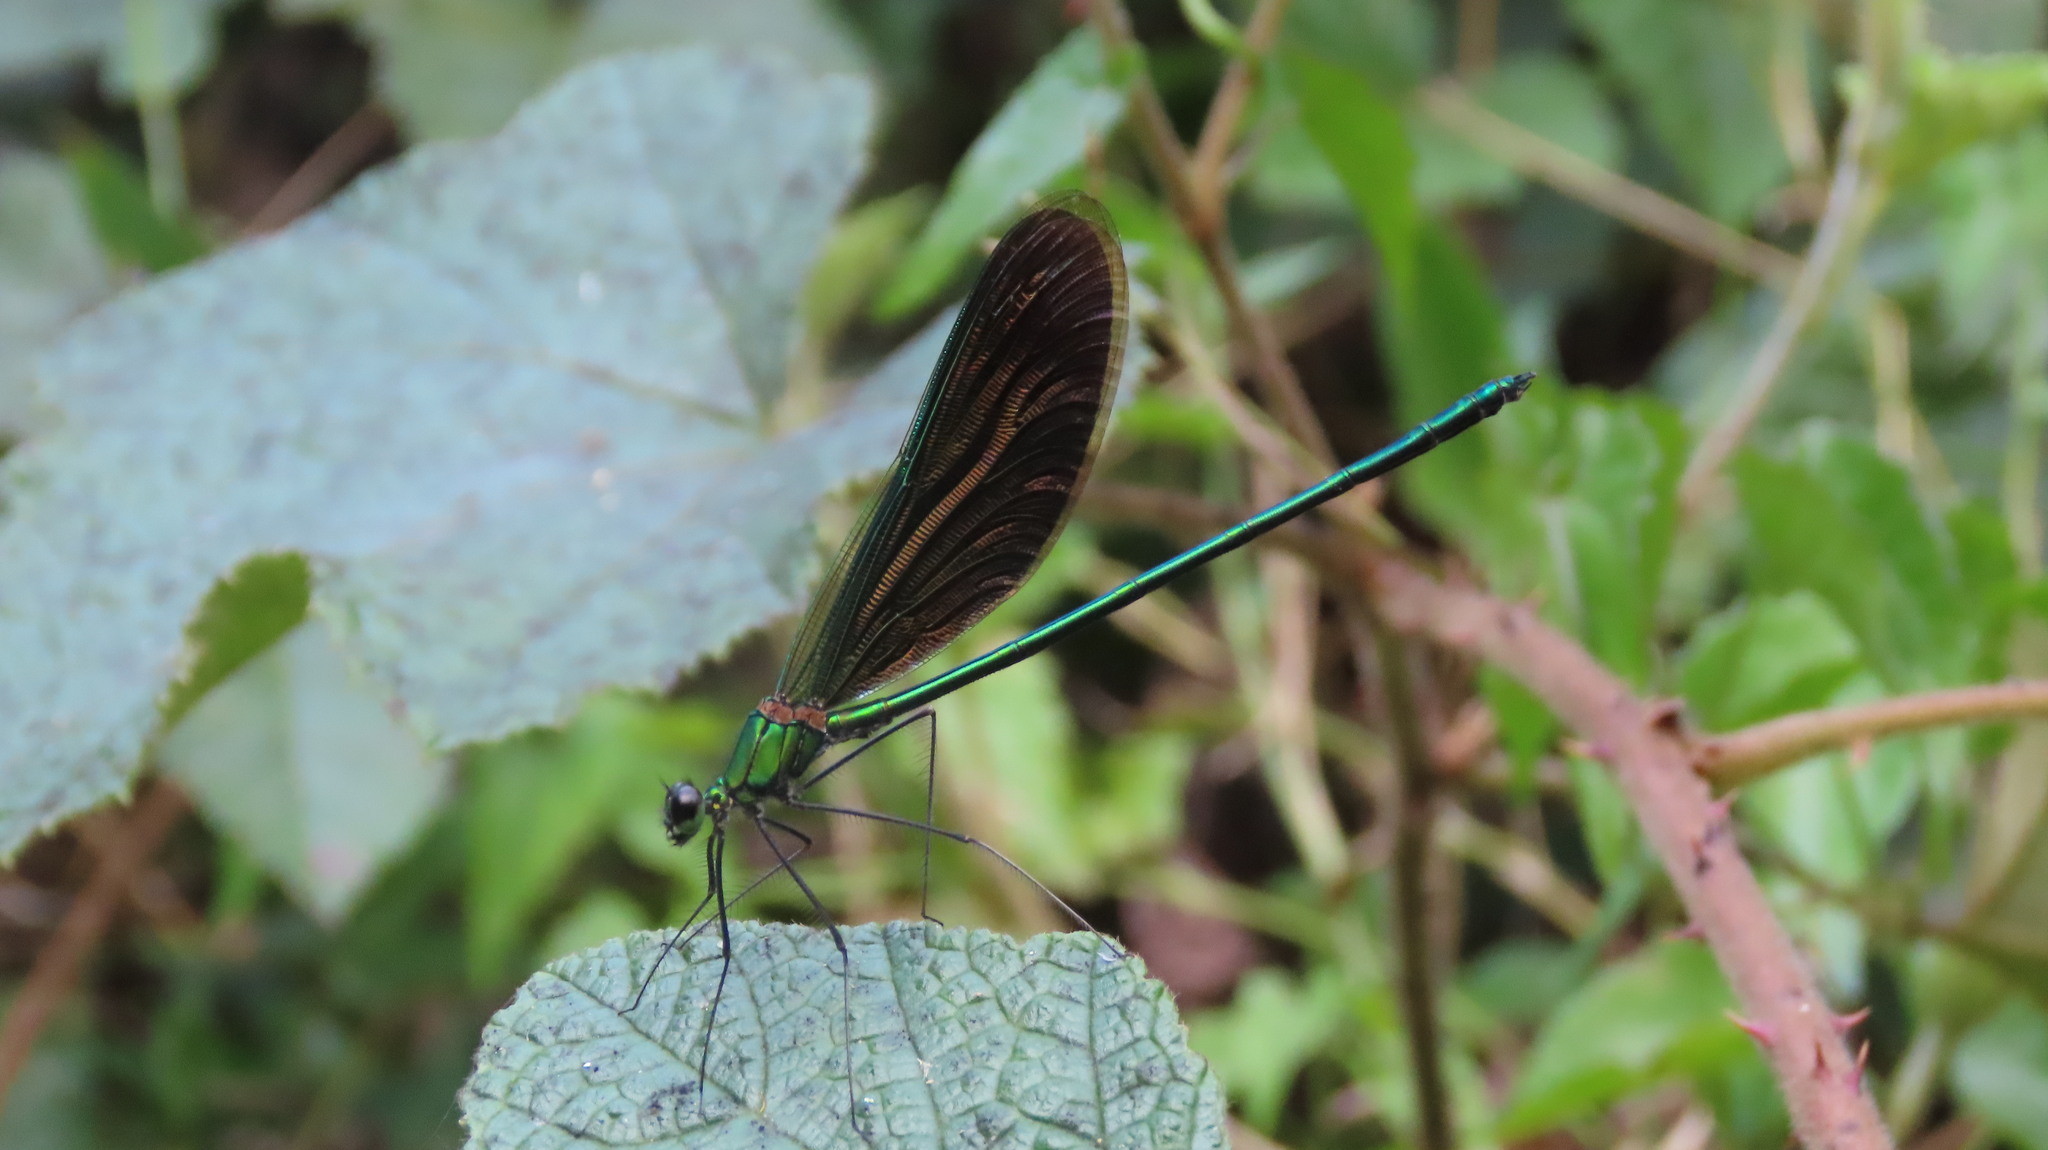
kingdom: Animalia
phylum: Arthropoda
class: Insecta
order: Odonata
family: Calopterygidae
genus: Neurobasis
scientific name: Neurobasis chinensis
